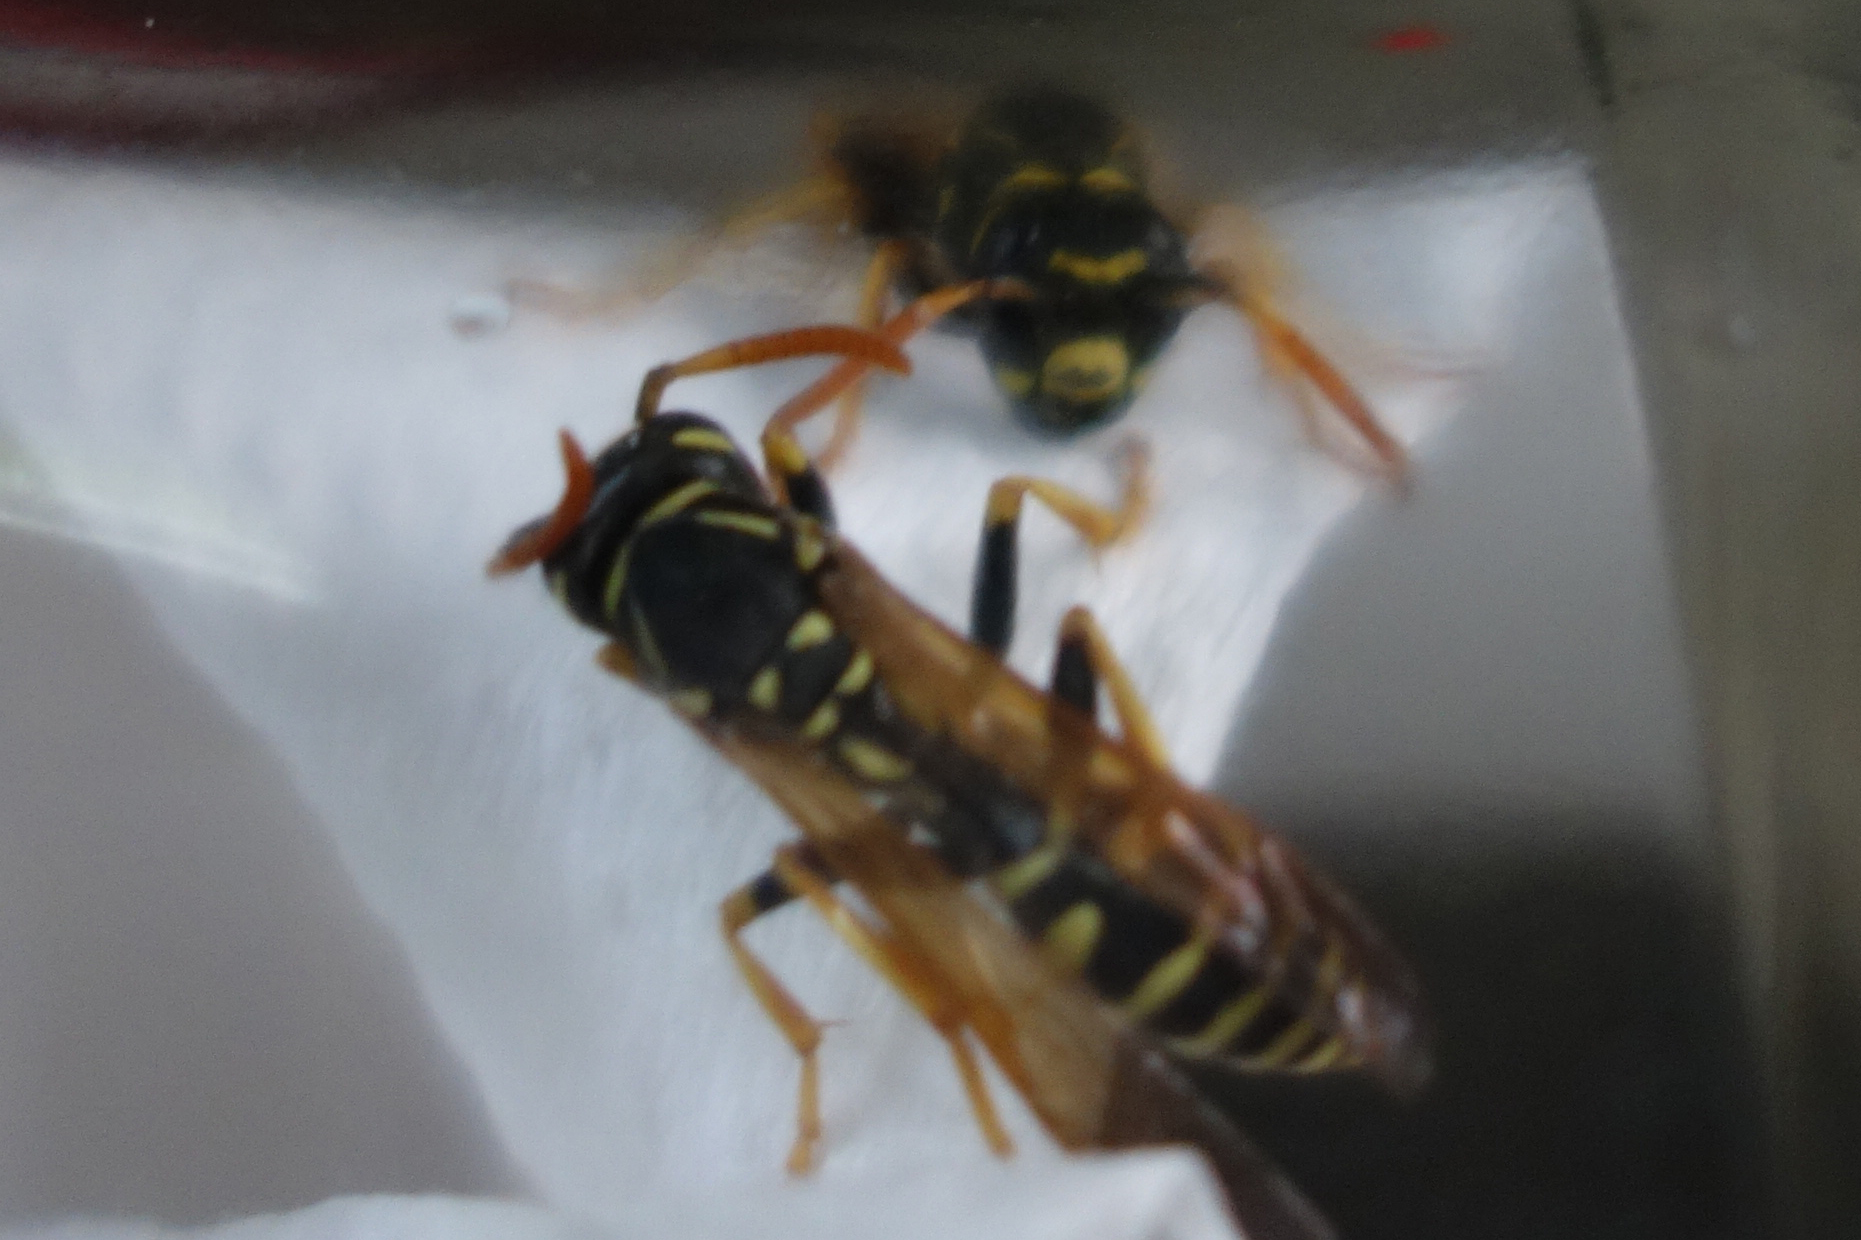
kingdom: Animalia
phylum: Arthropoda
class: Insecta
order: Hymenoptera
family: Eumenidae
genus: Polistes
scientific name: Polistes atrimandibularis
